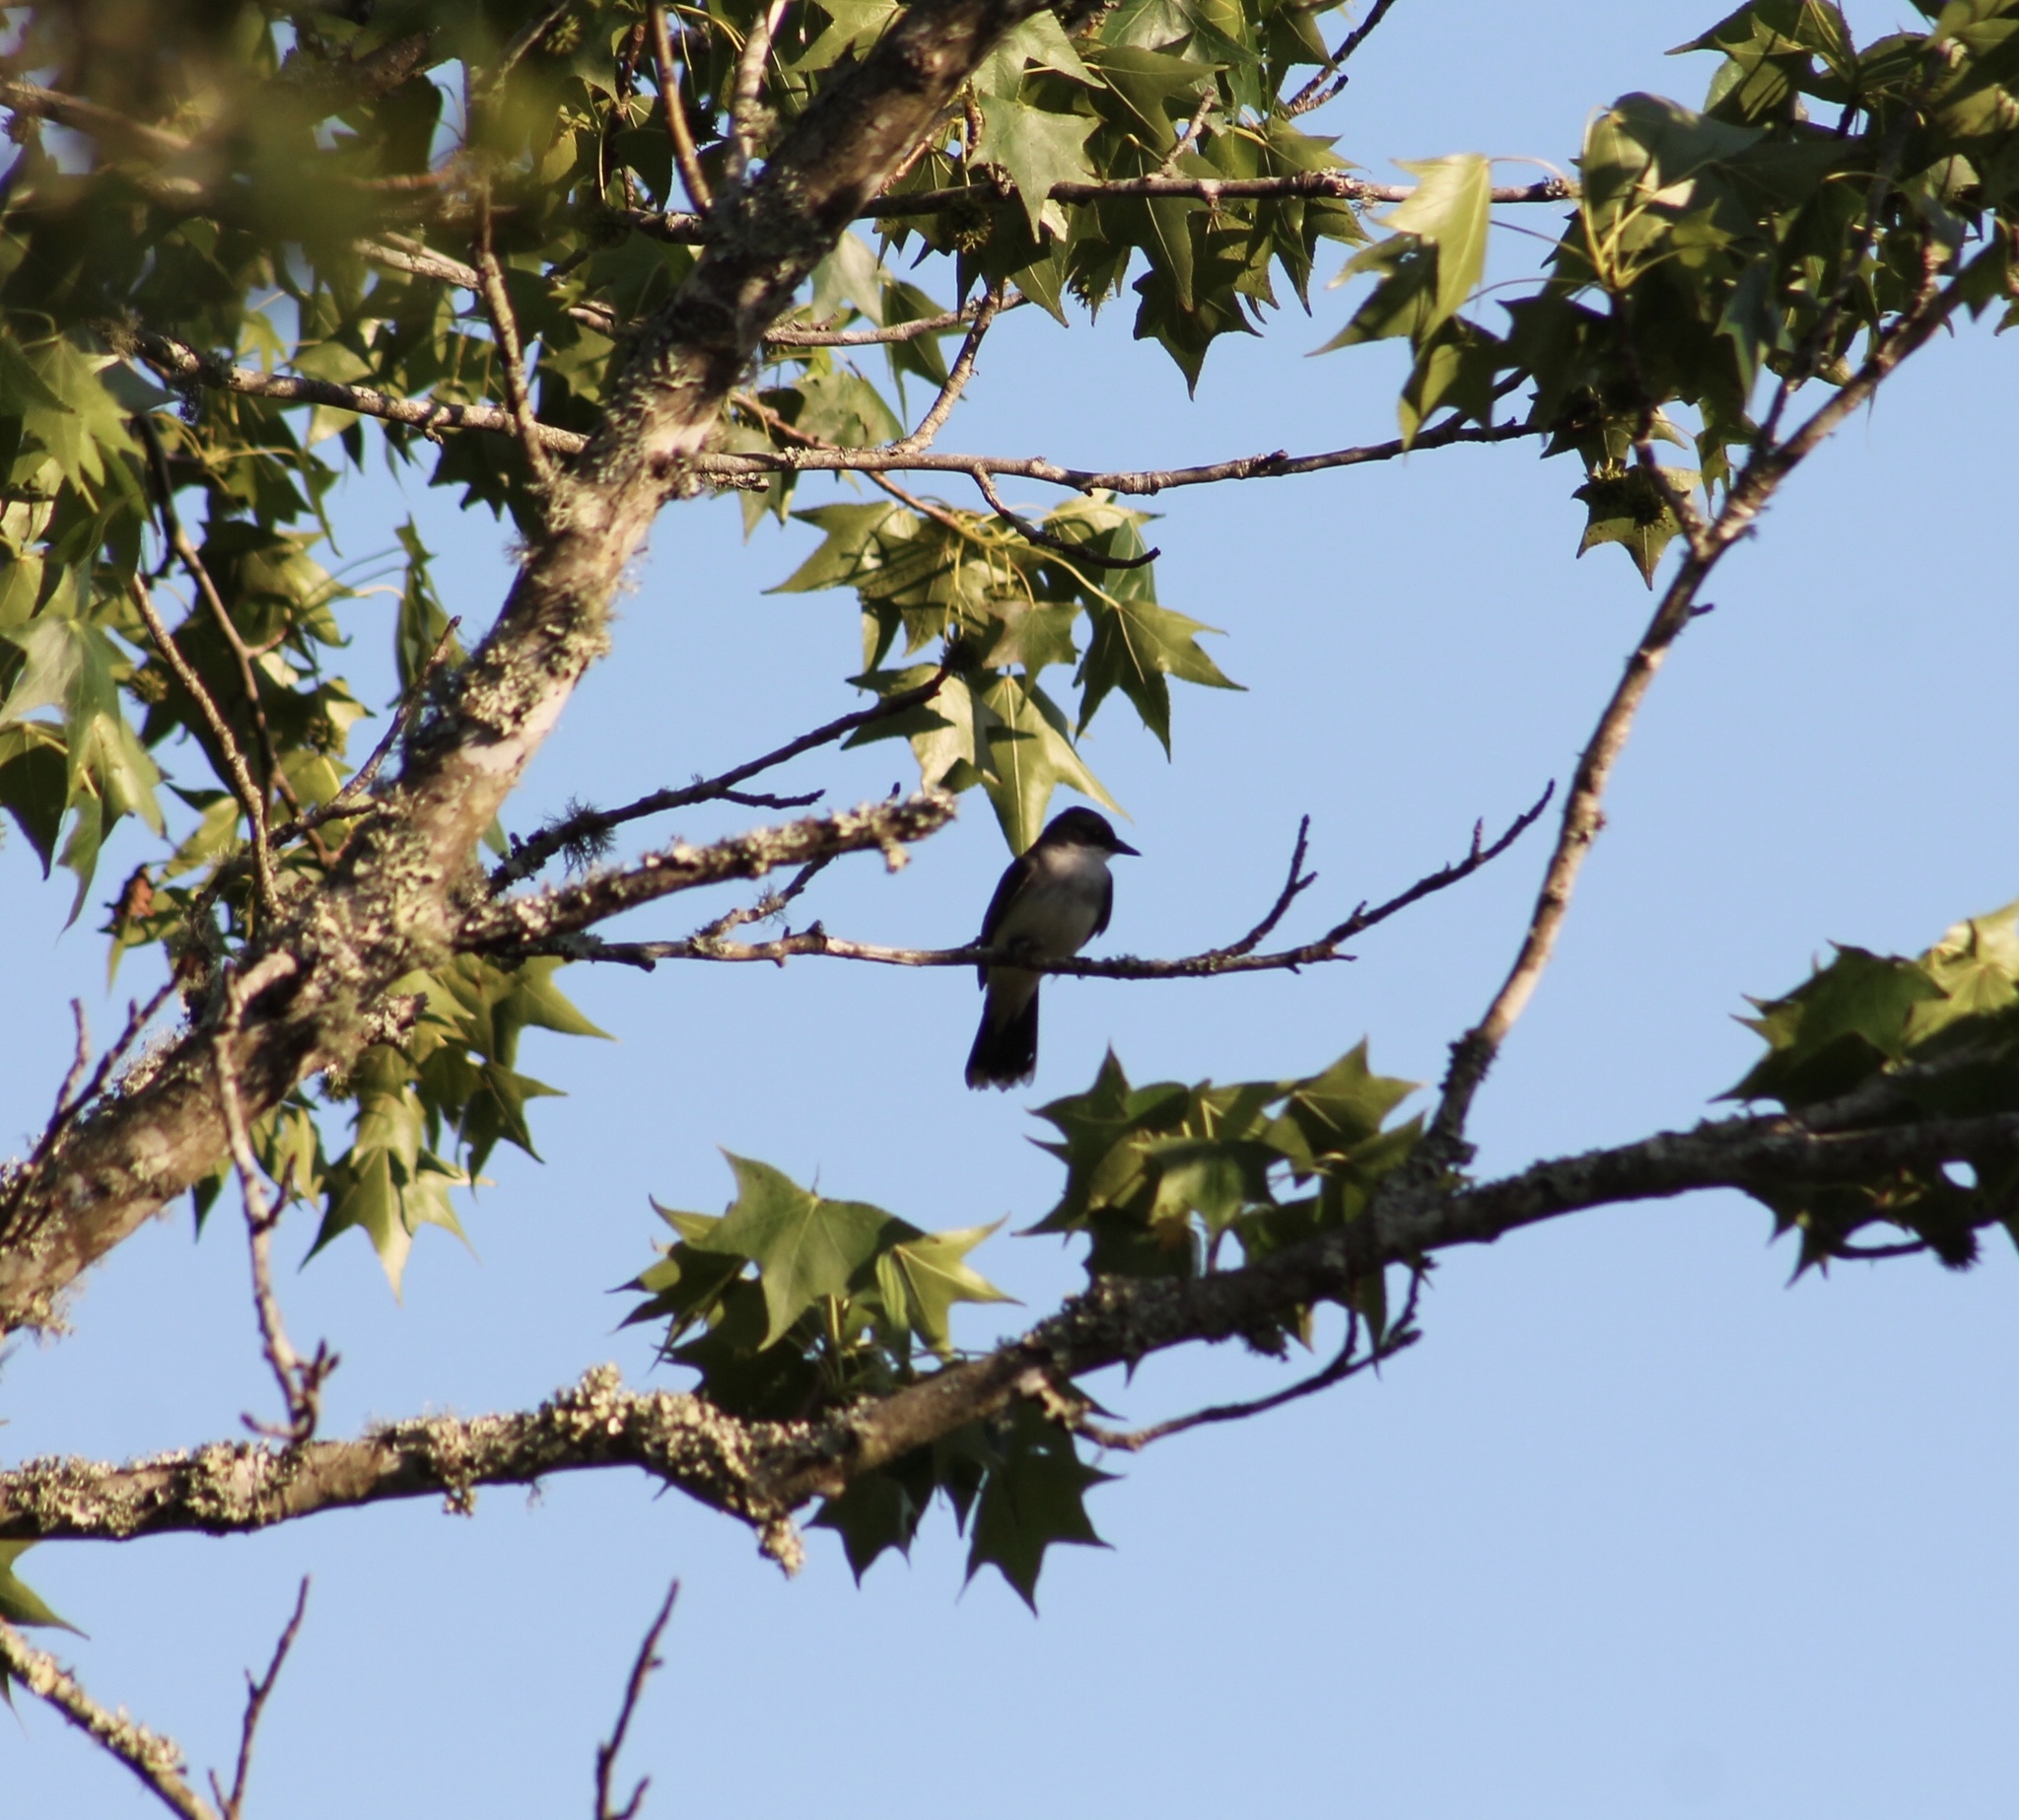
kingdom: Animalia
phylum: Chordata
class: Aves
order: Passeriformes
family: Tyrannidae
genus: Tyrannus
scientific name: Tyrannus tyrannus
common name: Eastern kingbird
